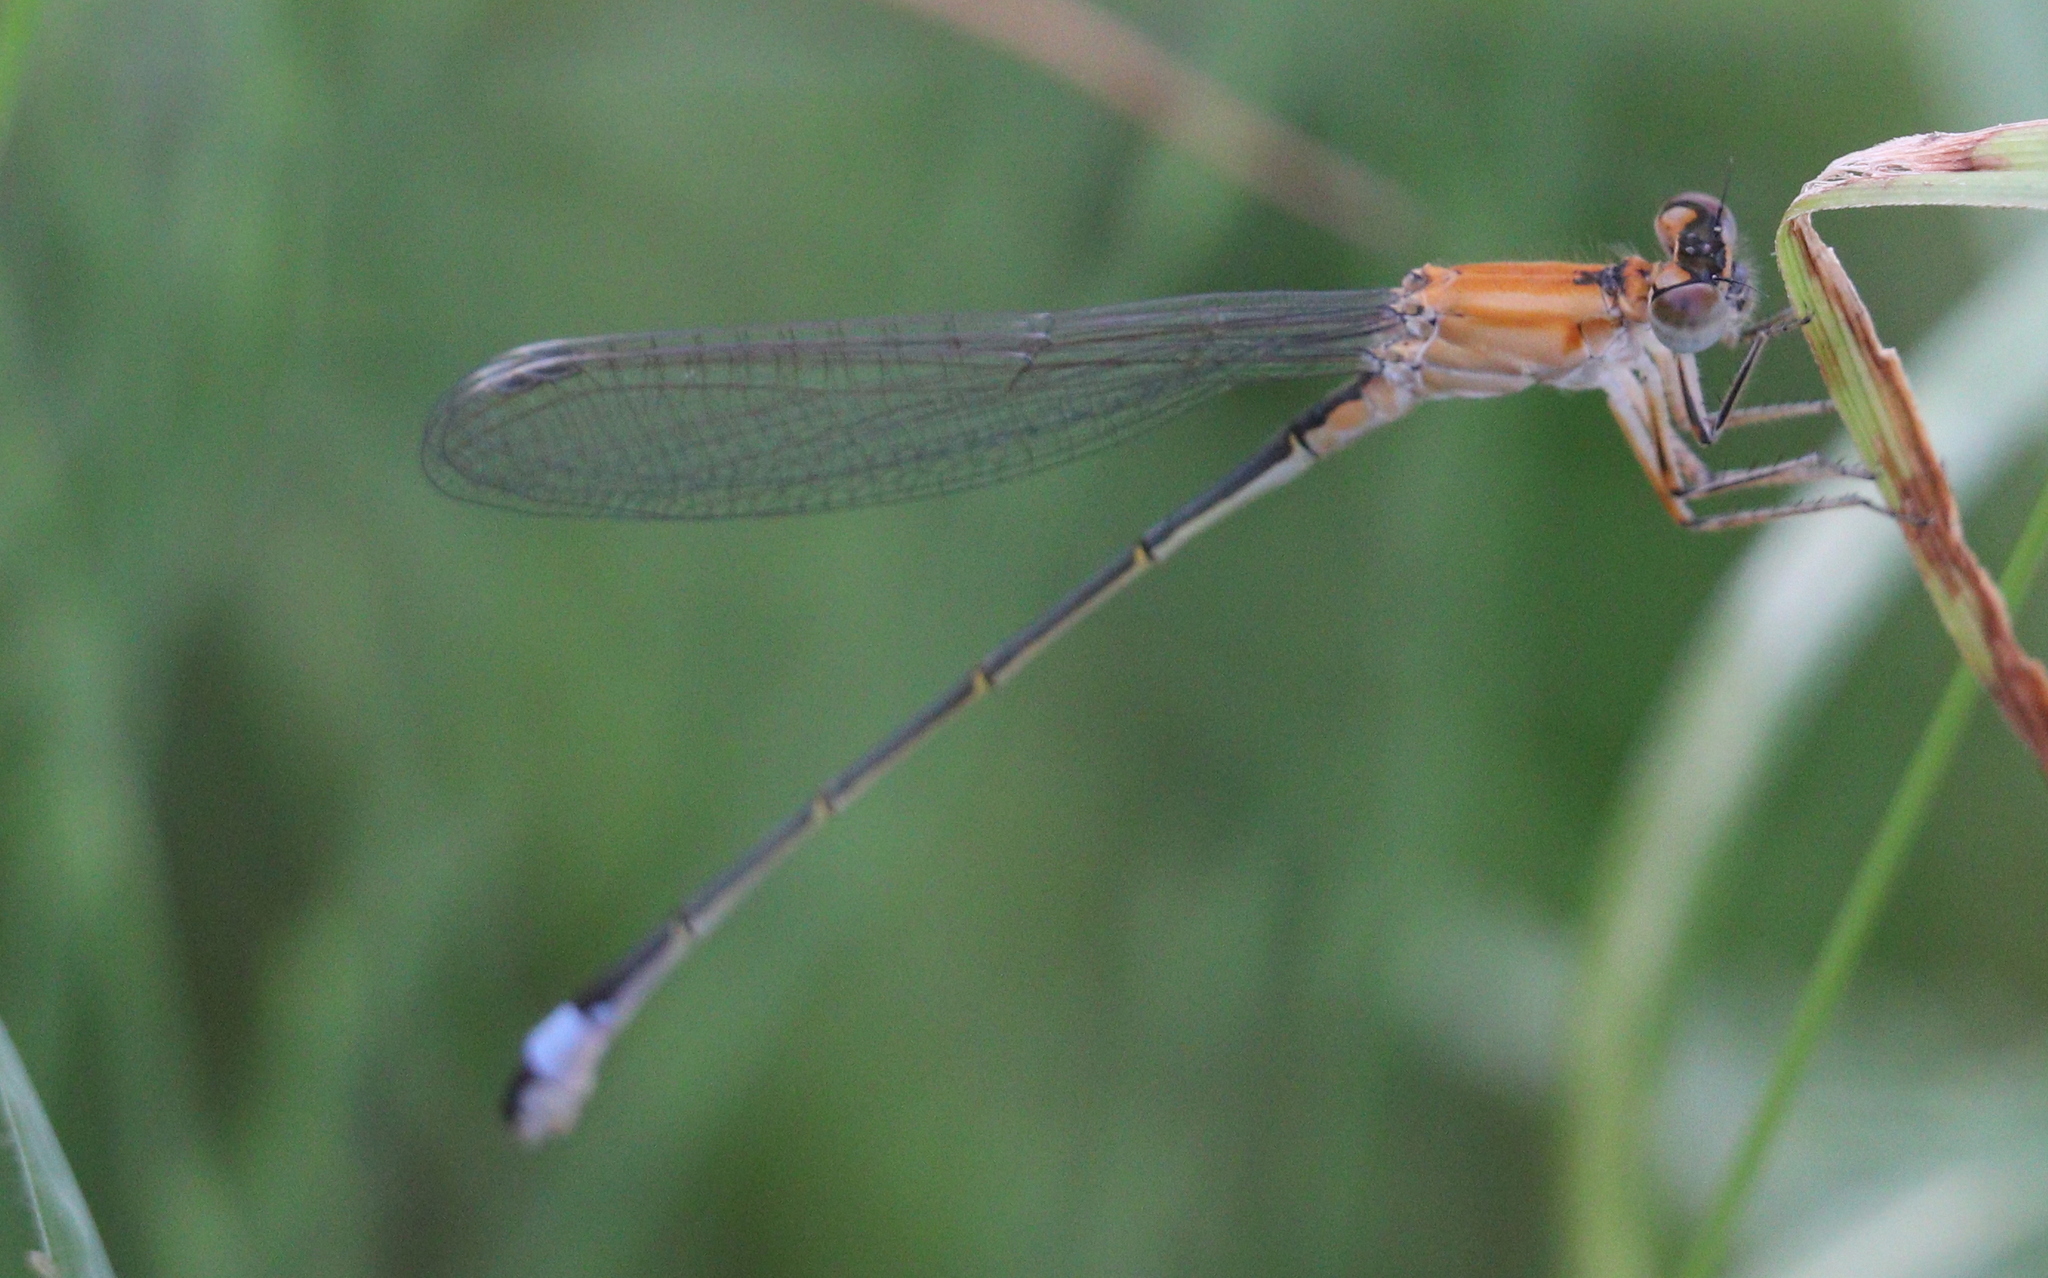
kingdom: Animalia
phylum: Arthropoda
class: Insecta
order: Odonata
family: Coenagrionidae
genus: Ischnura
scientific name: Ischnura elegans
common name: Blue-tailed damselfly
